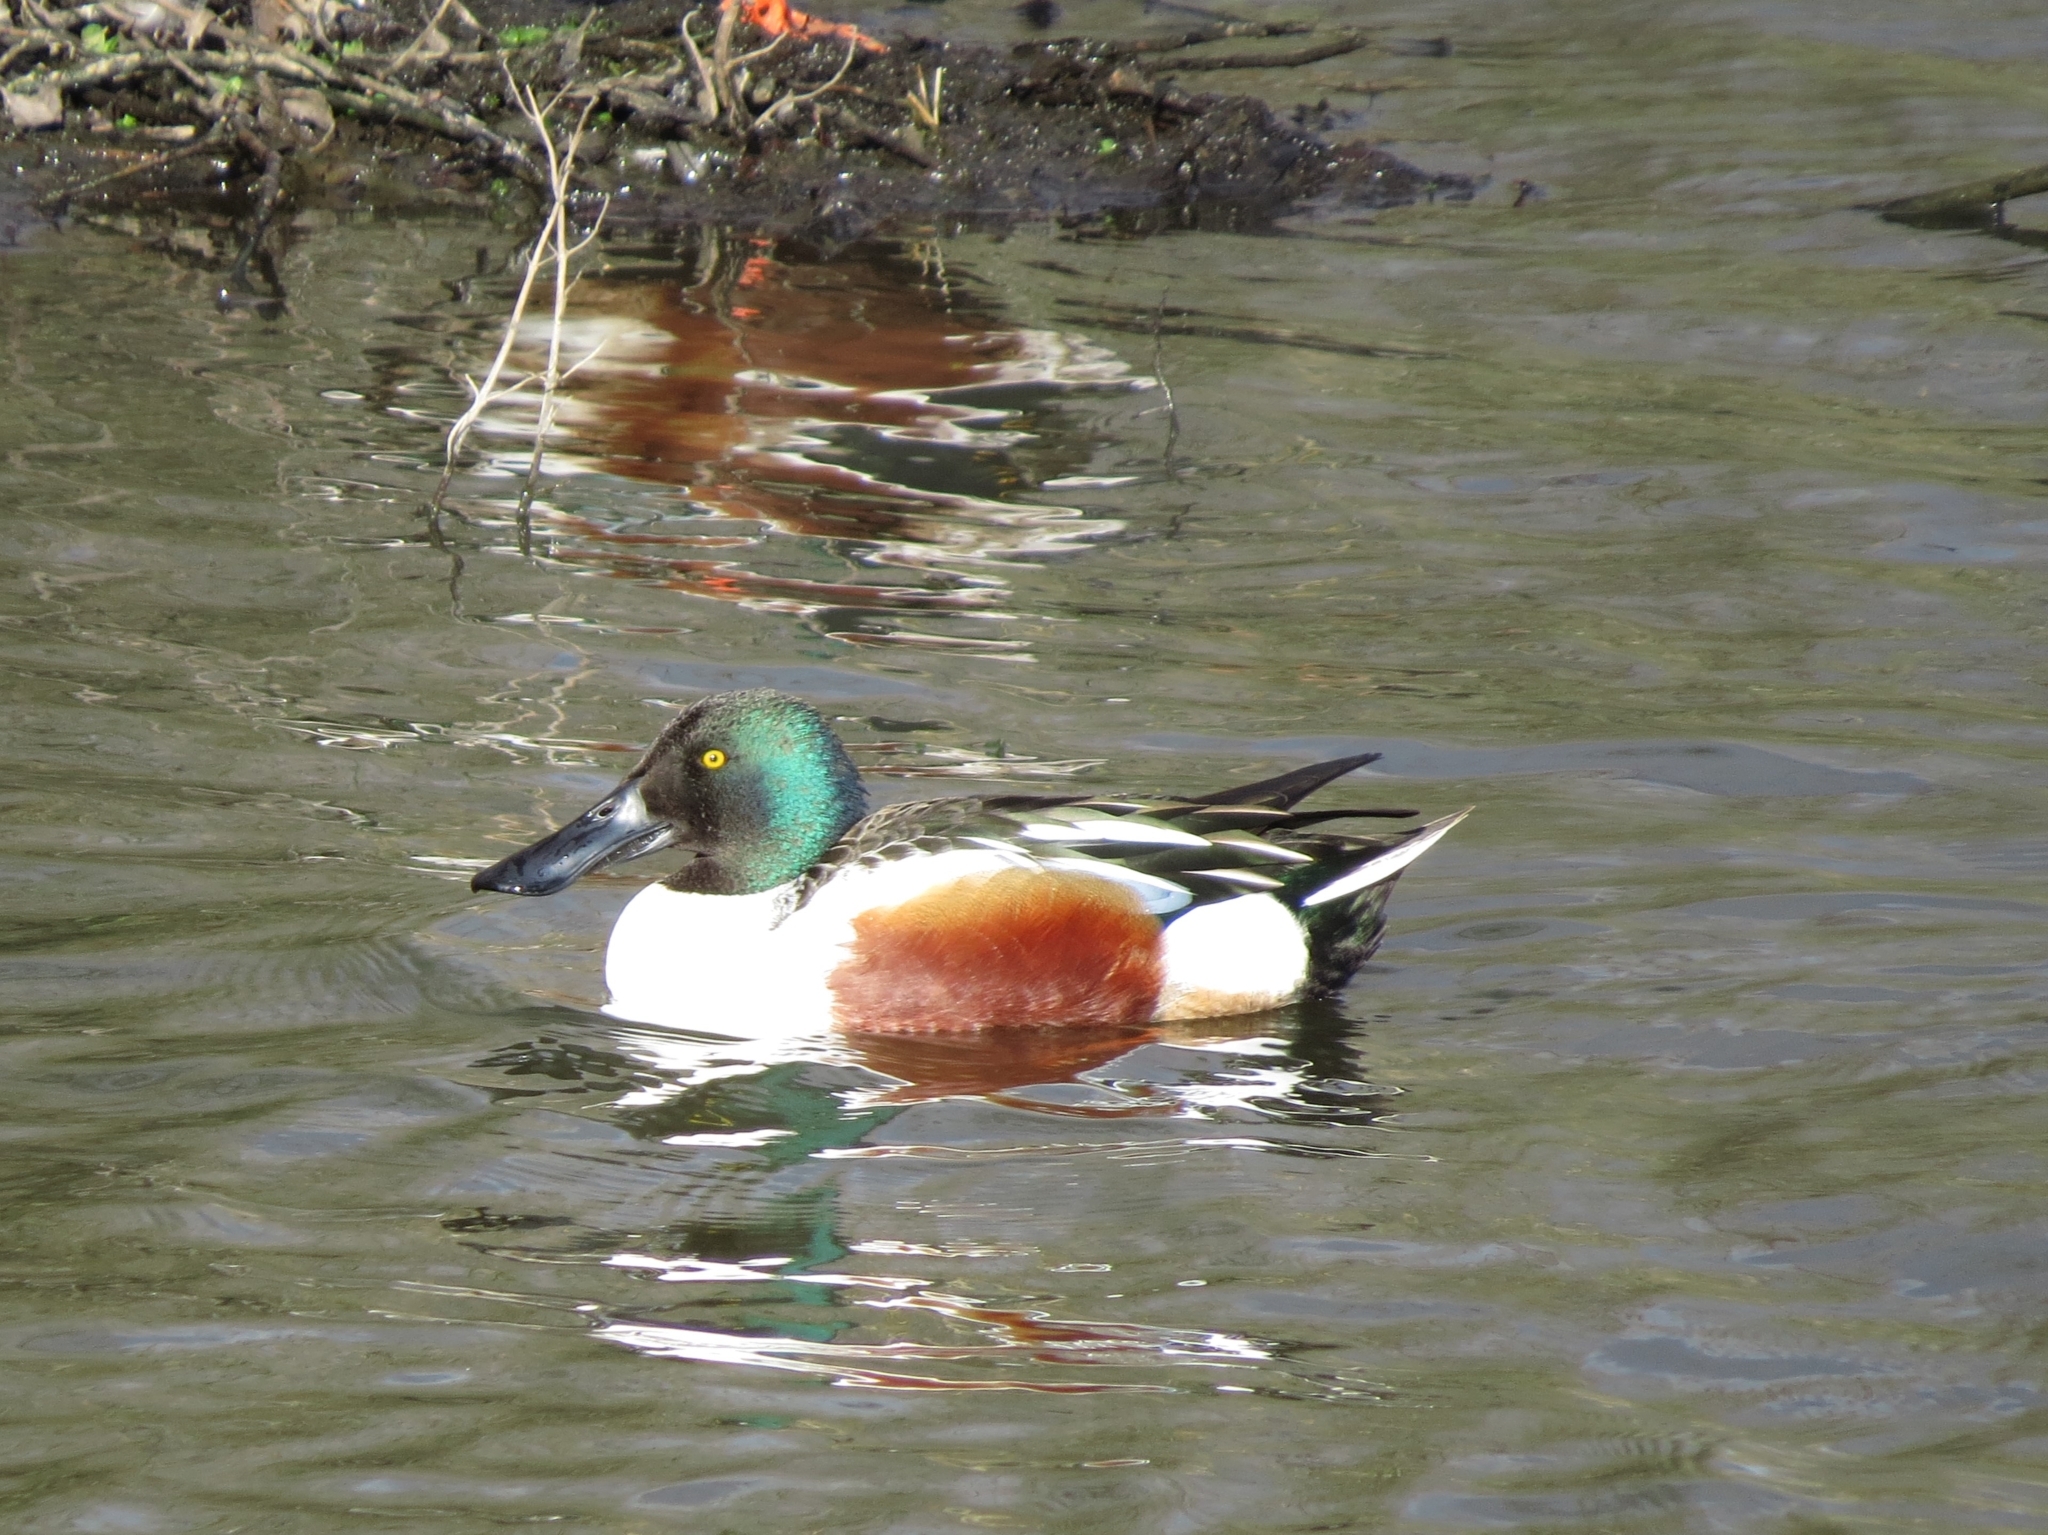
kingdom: Animalia
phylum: Chordata
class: Aves
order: Anseriformes
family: Anatidae
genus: Spatula
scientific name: Spatula clypeata
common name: Northern shoveler
